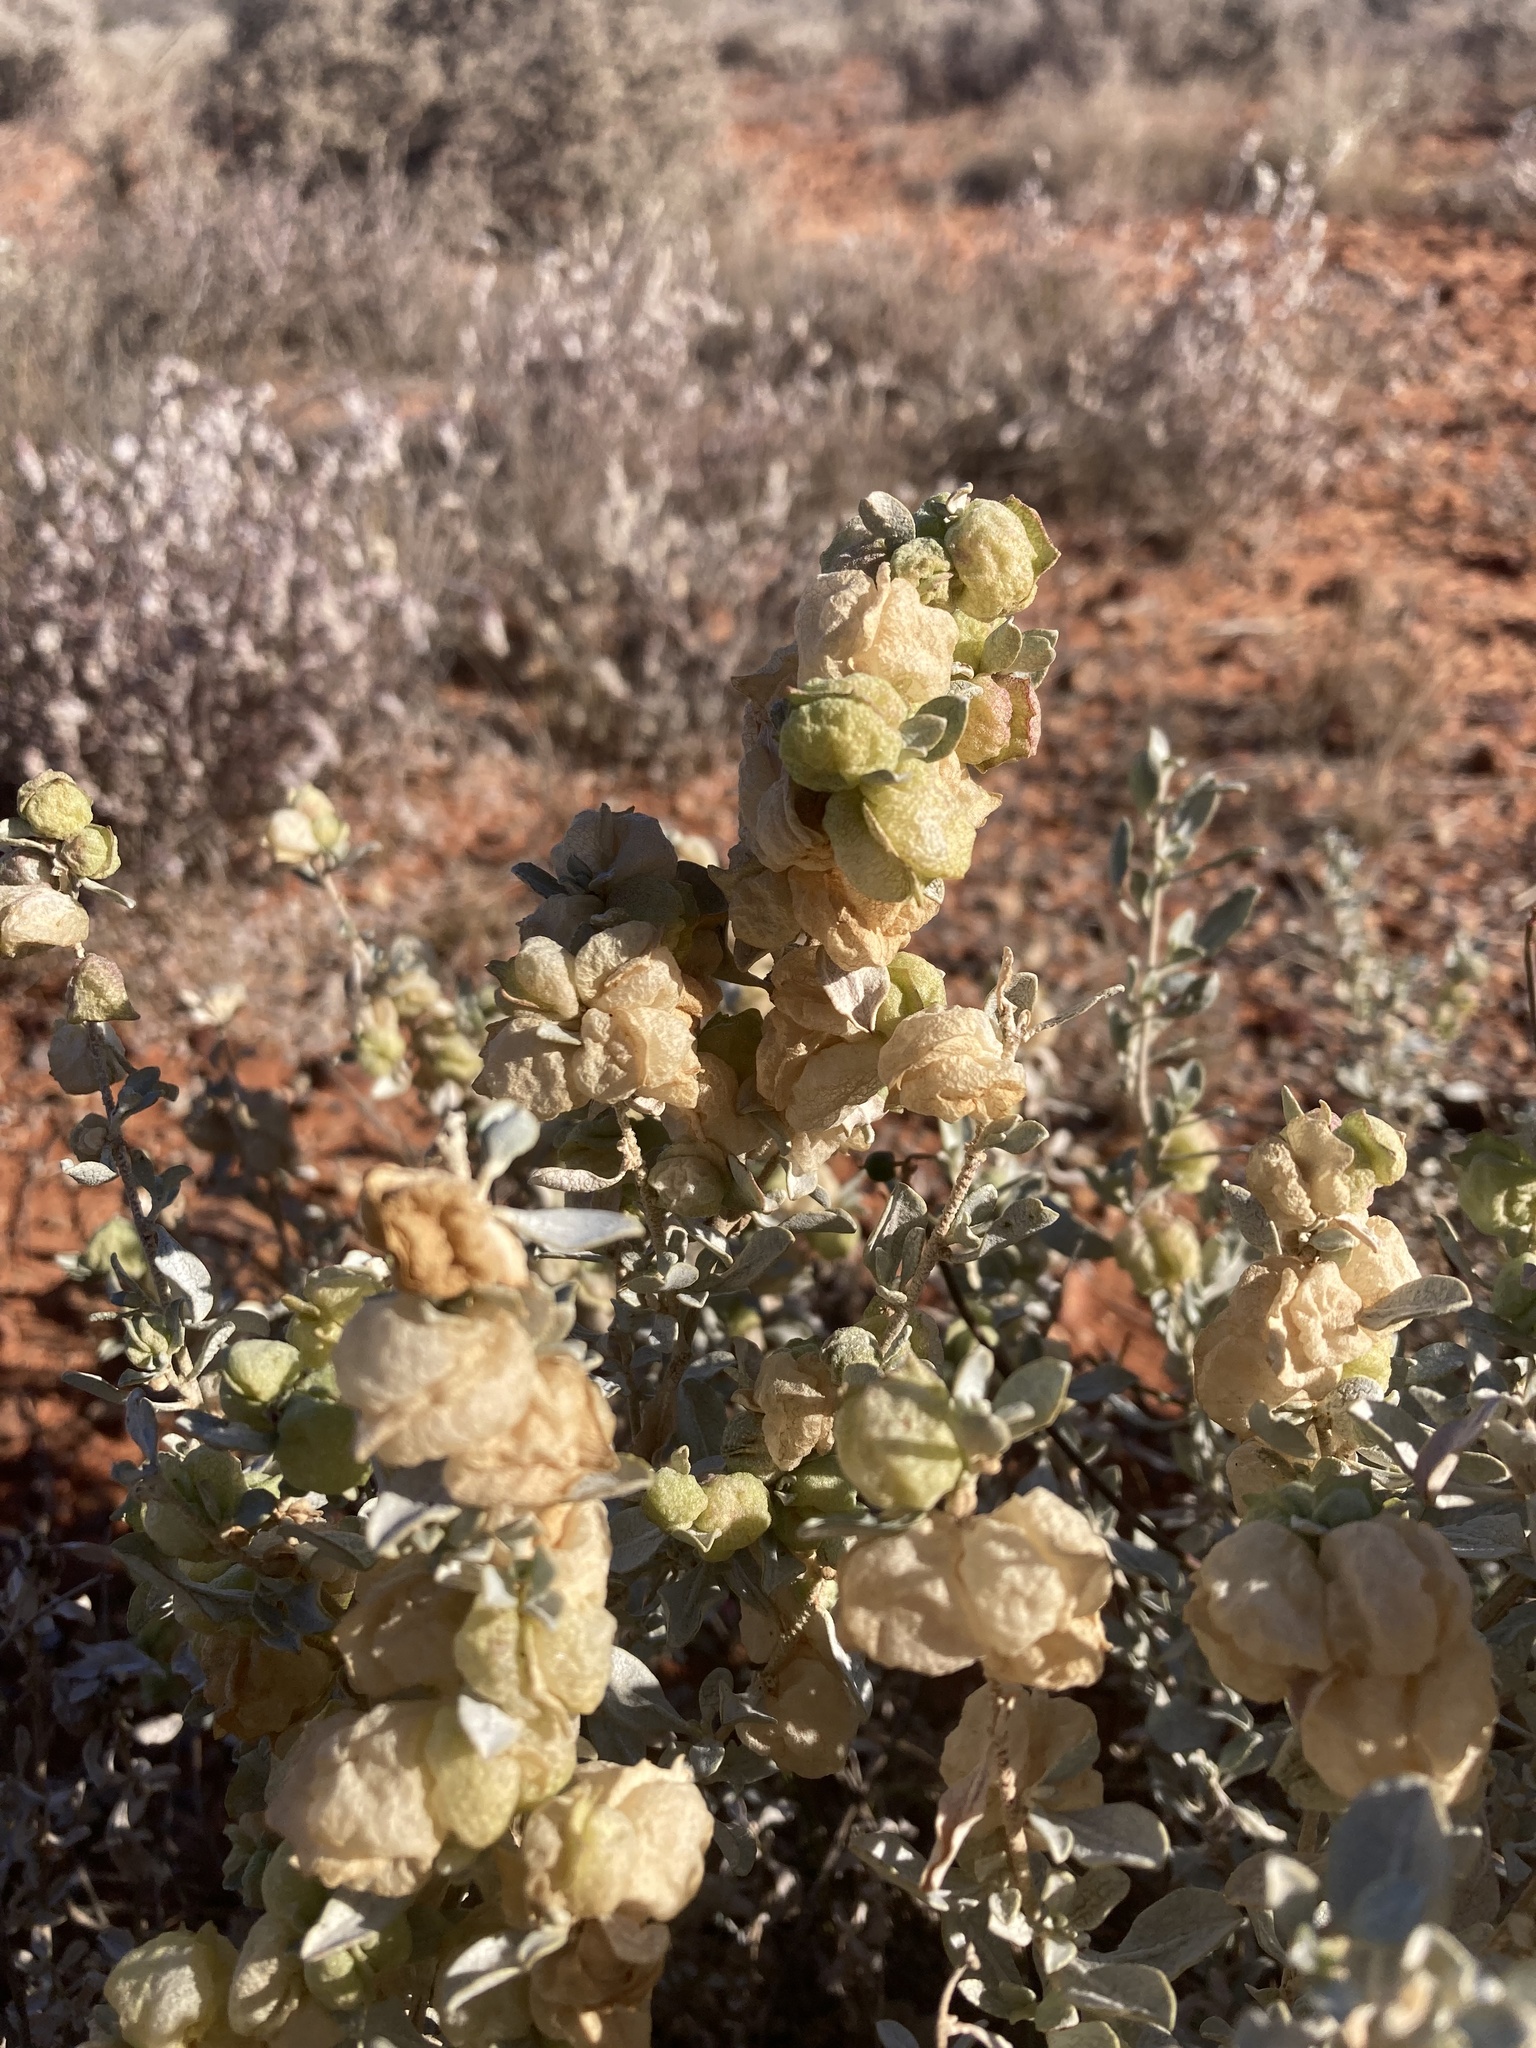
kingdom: Plantae
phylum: Tracheophyta
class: Magnoliopsida
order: Caryophyllales
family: Amaranthaceae
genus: Atriplex
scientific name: Atriplex vesicaria
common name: Aboriginal saltbush
